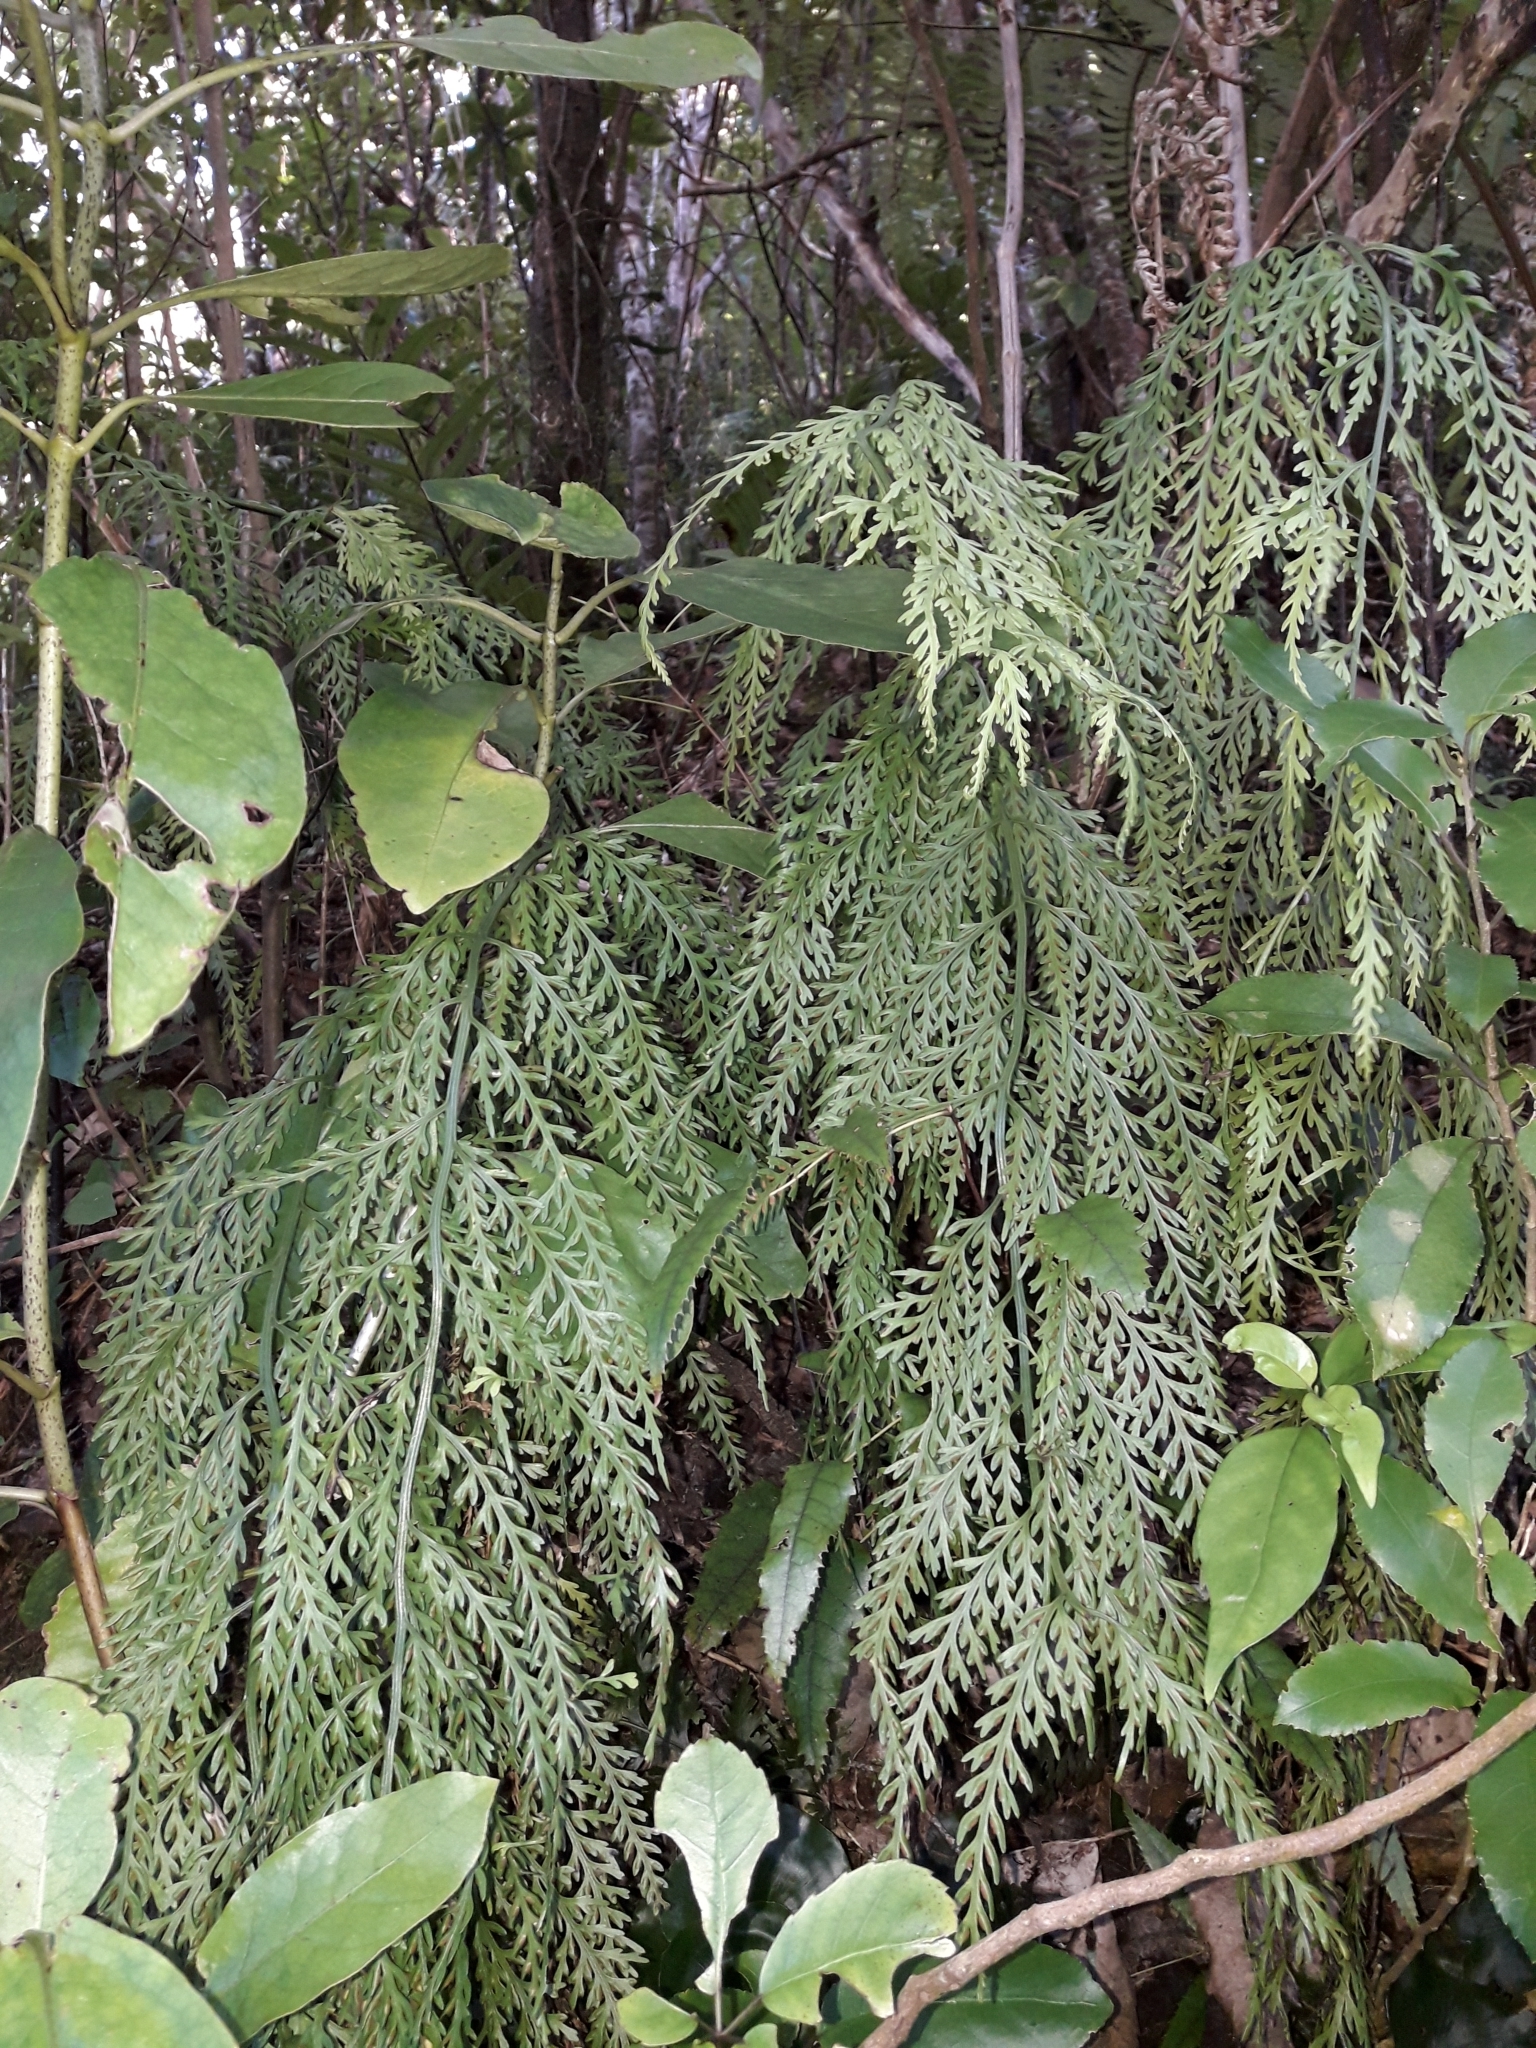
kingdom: Plantae
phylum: Tracheophyta
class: Polypodiopsida
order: Polypodiales
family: Aspleniaceae
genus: Asplenium
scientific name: Asplenium flaccidum
